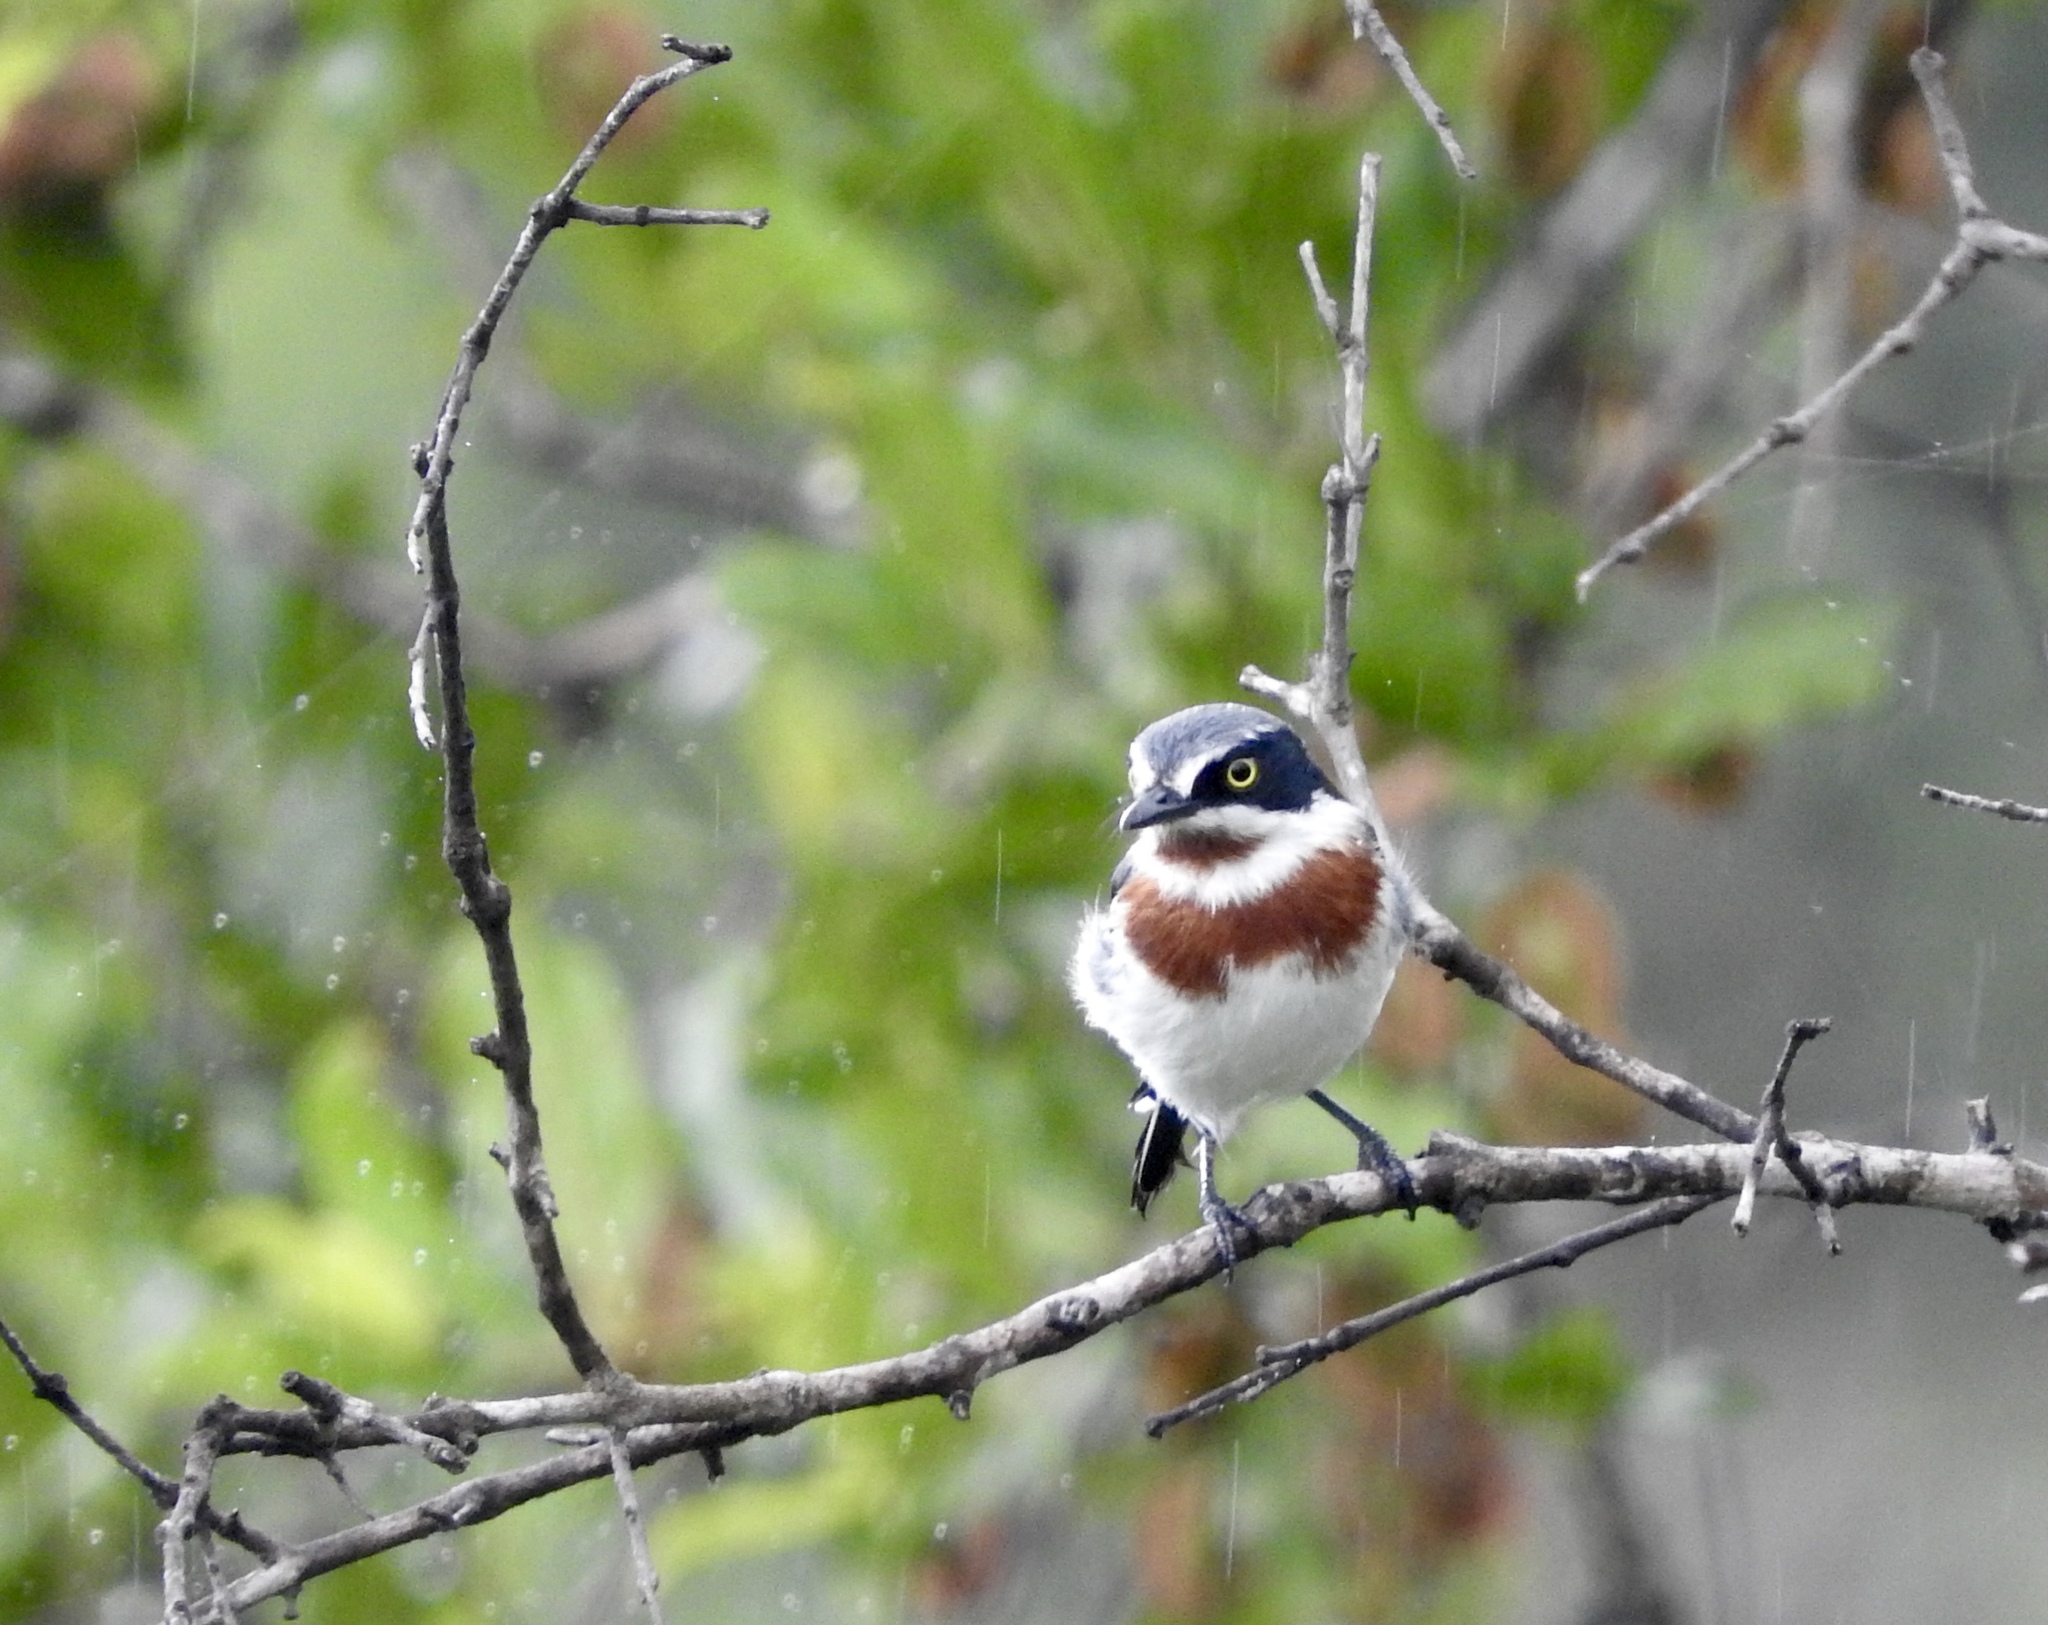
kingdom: Animalia
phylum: Chordata
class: Aves
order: Passeriformes
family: Platysteiridae
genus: Batis
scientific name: Batis molitor
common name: Chinspot batis
